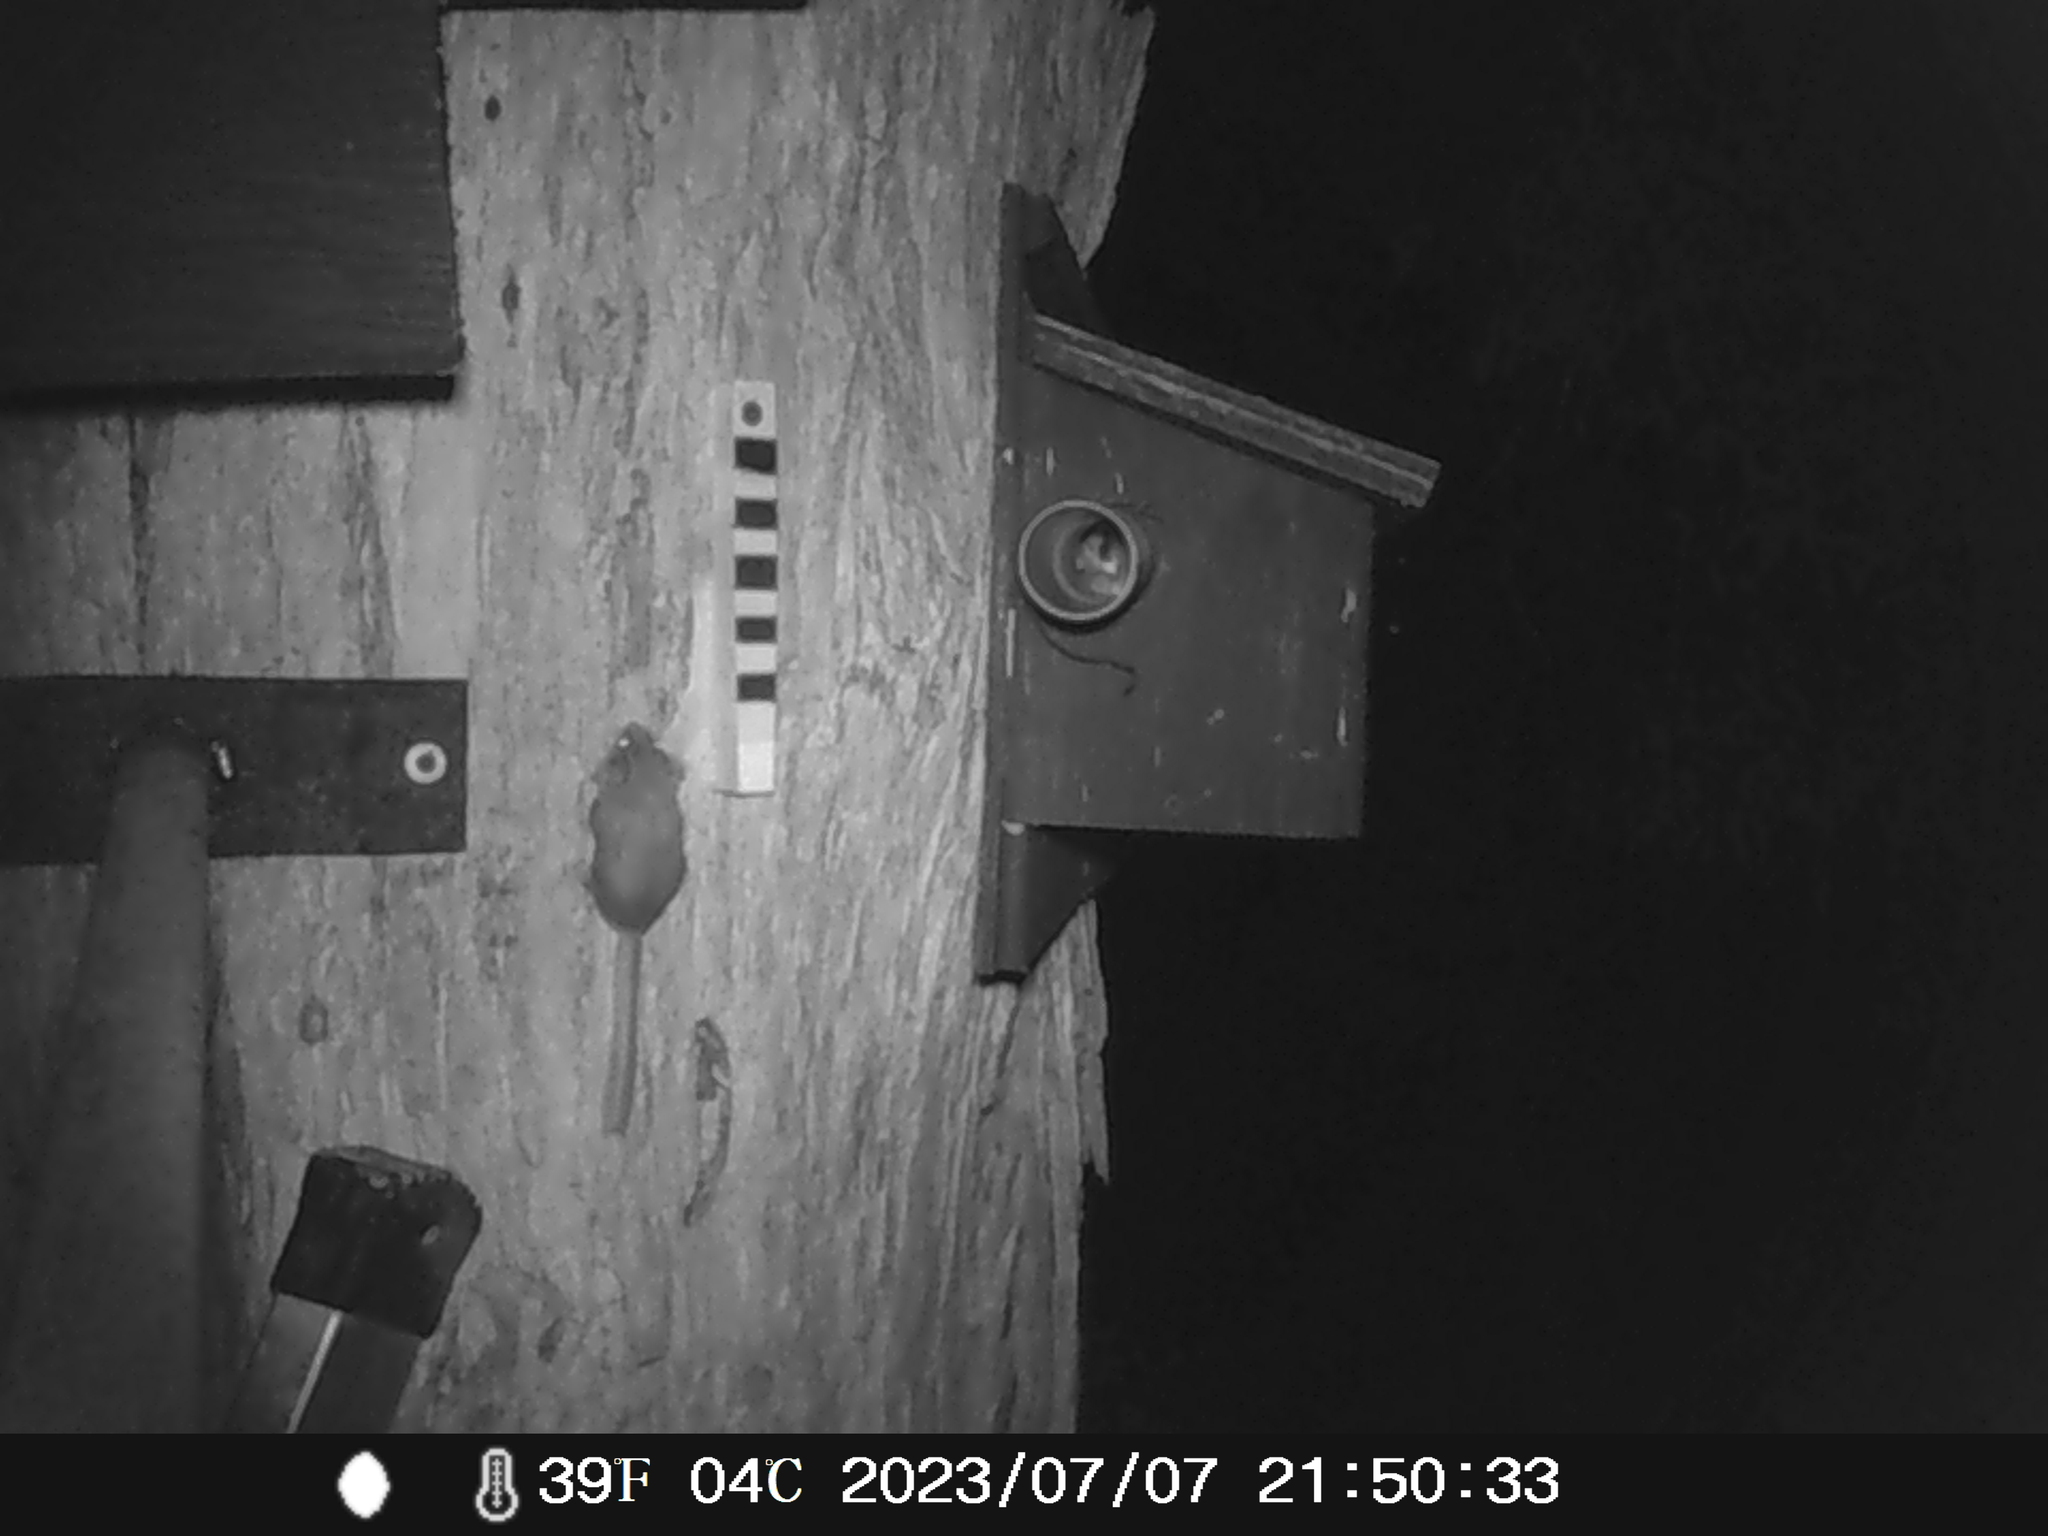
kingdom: Animalia
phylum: Chordata
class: Mammalia
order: Diprotodontia
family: Acrobatidae
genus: Acrobates
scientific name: Acrobates pygmaeus
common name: Feathertail glider
